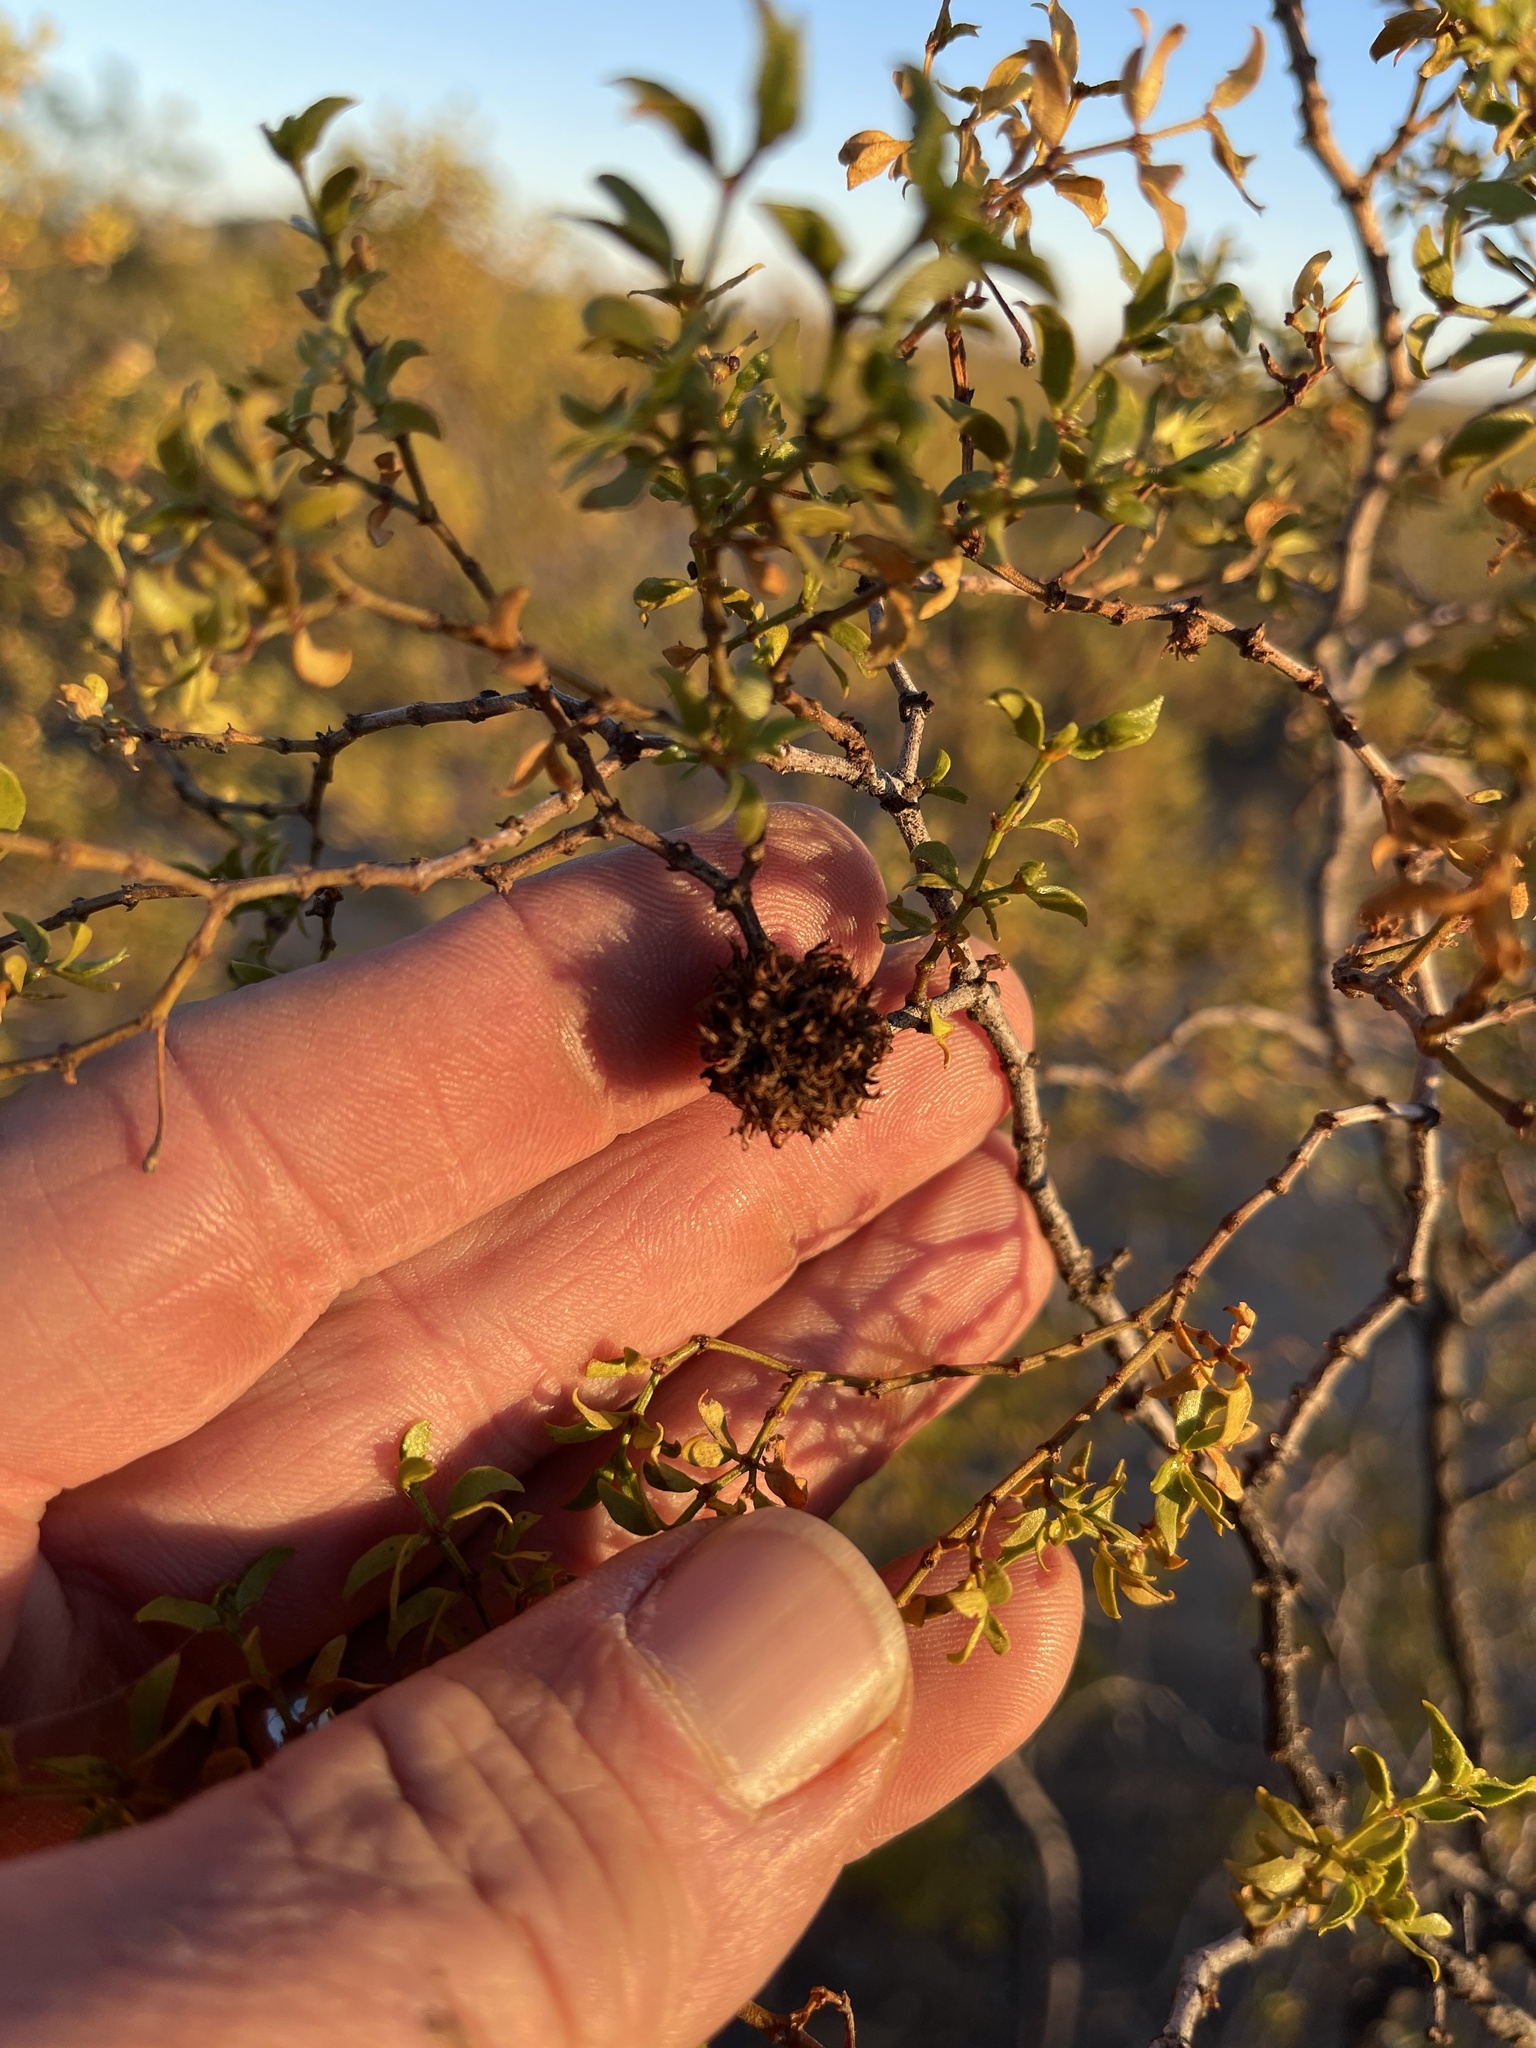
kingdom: Animalia
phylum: Arthropoda
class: Insecta
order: Diptera
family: Cecidomyiidae
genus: Asphondylia
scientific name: Asphondylia auripila
